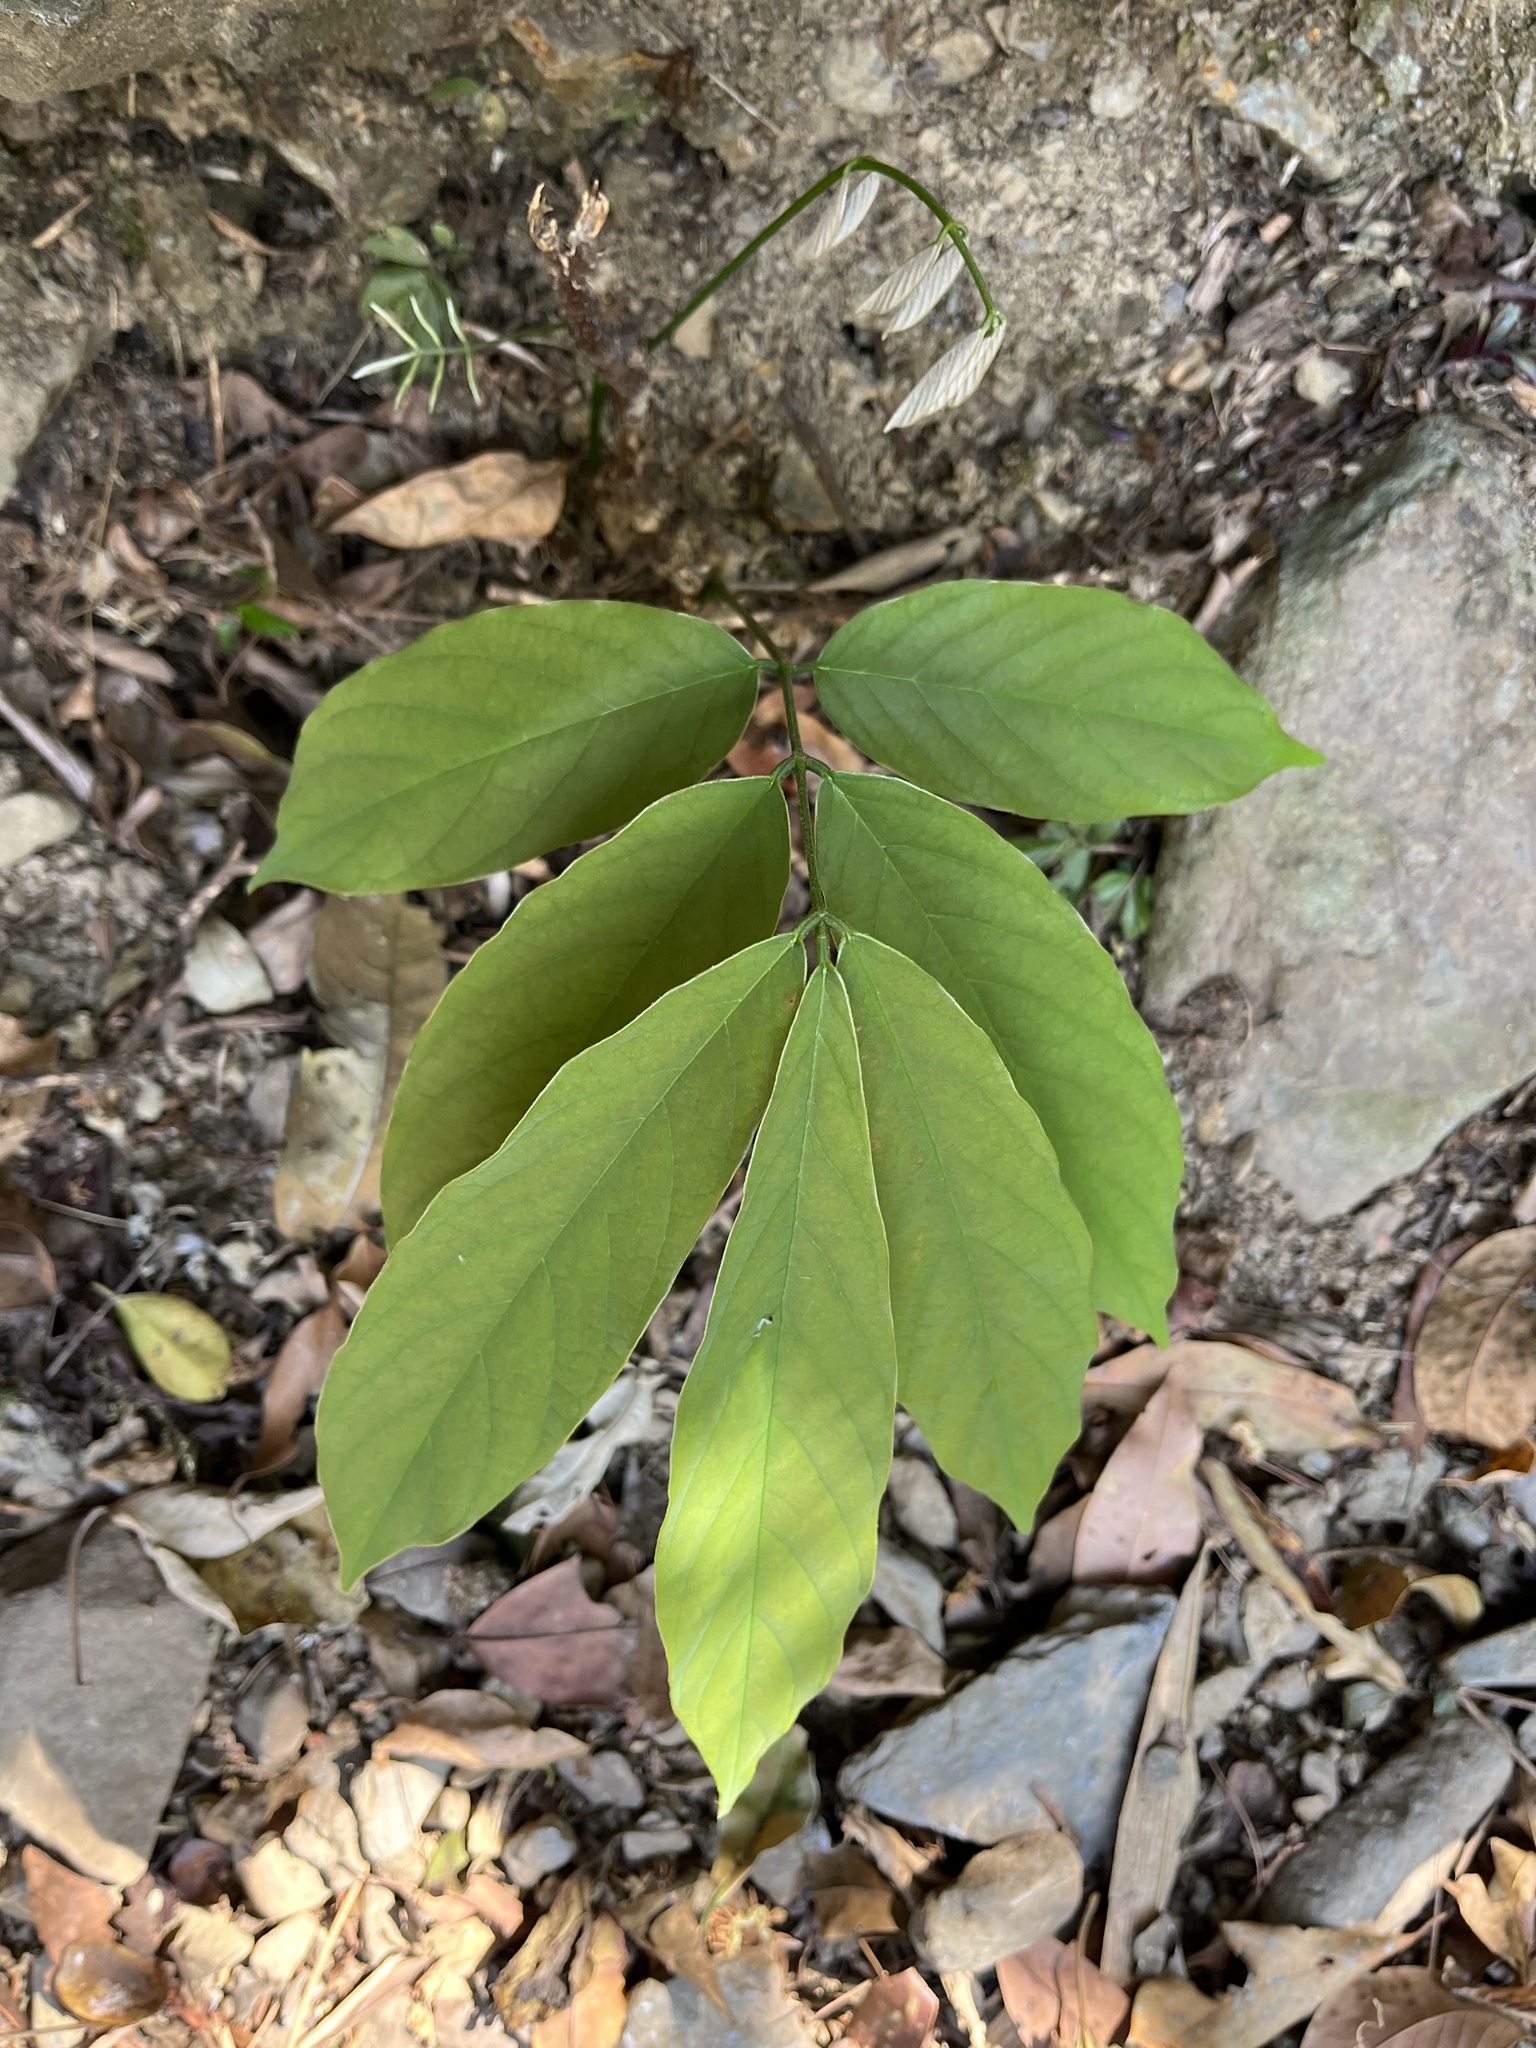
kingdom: Plantae
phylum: Tracheophyta
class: Magnoliopsida
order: Fabales
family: Fabaceae
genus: Millettia
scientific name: Millettia pachycarpa
